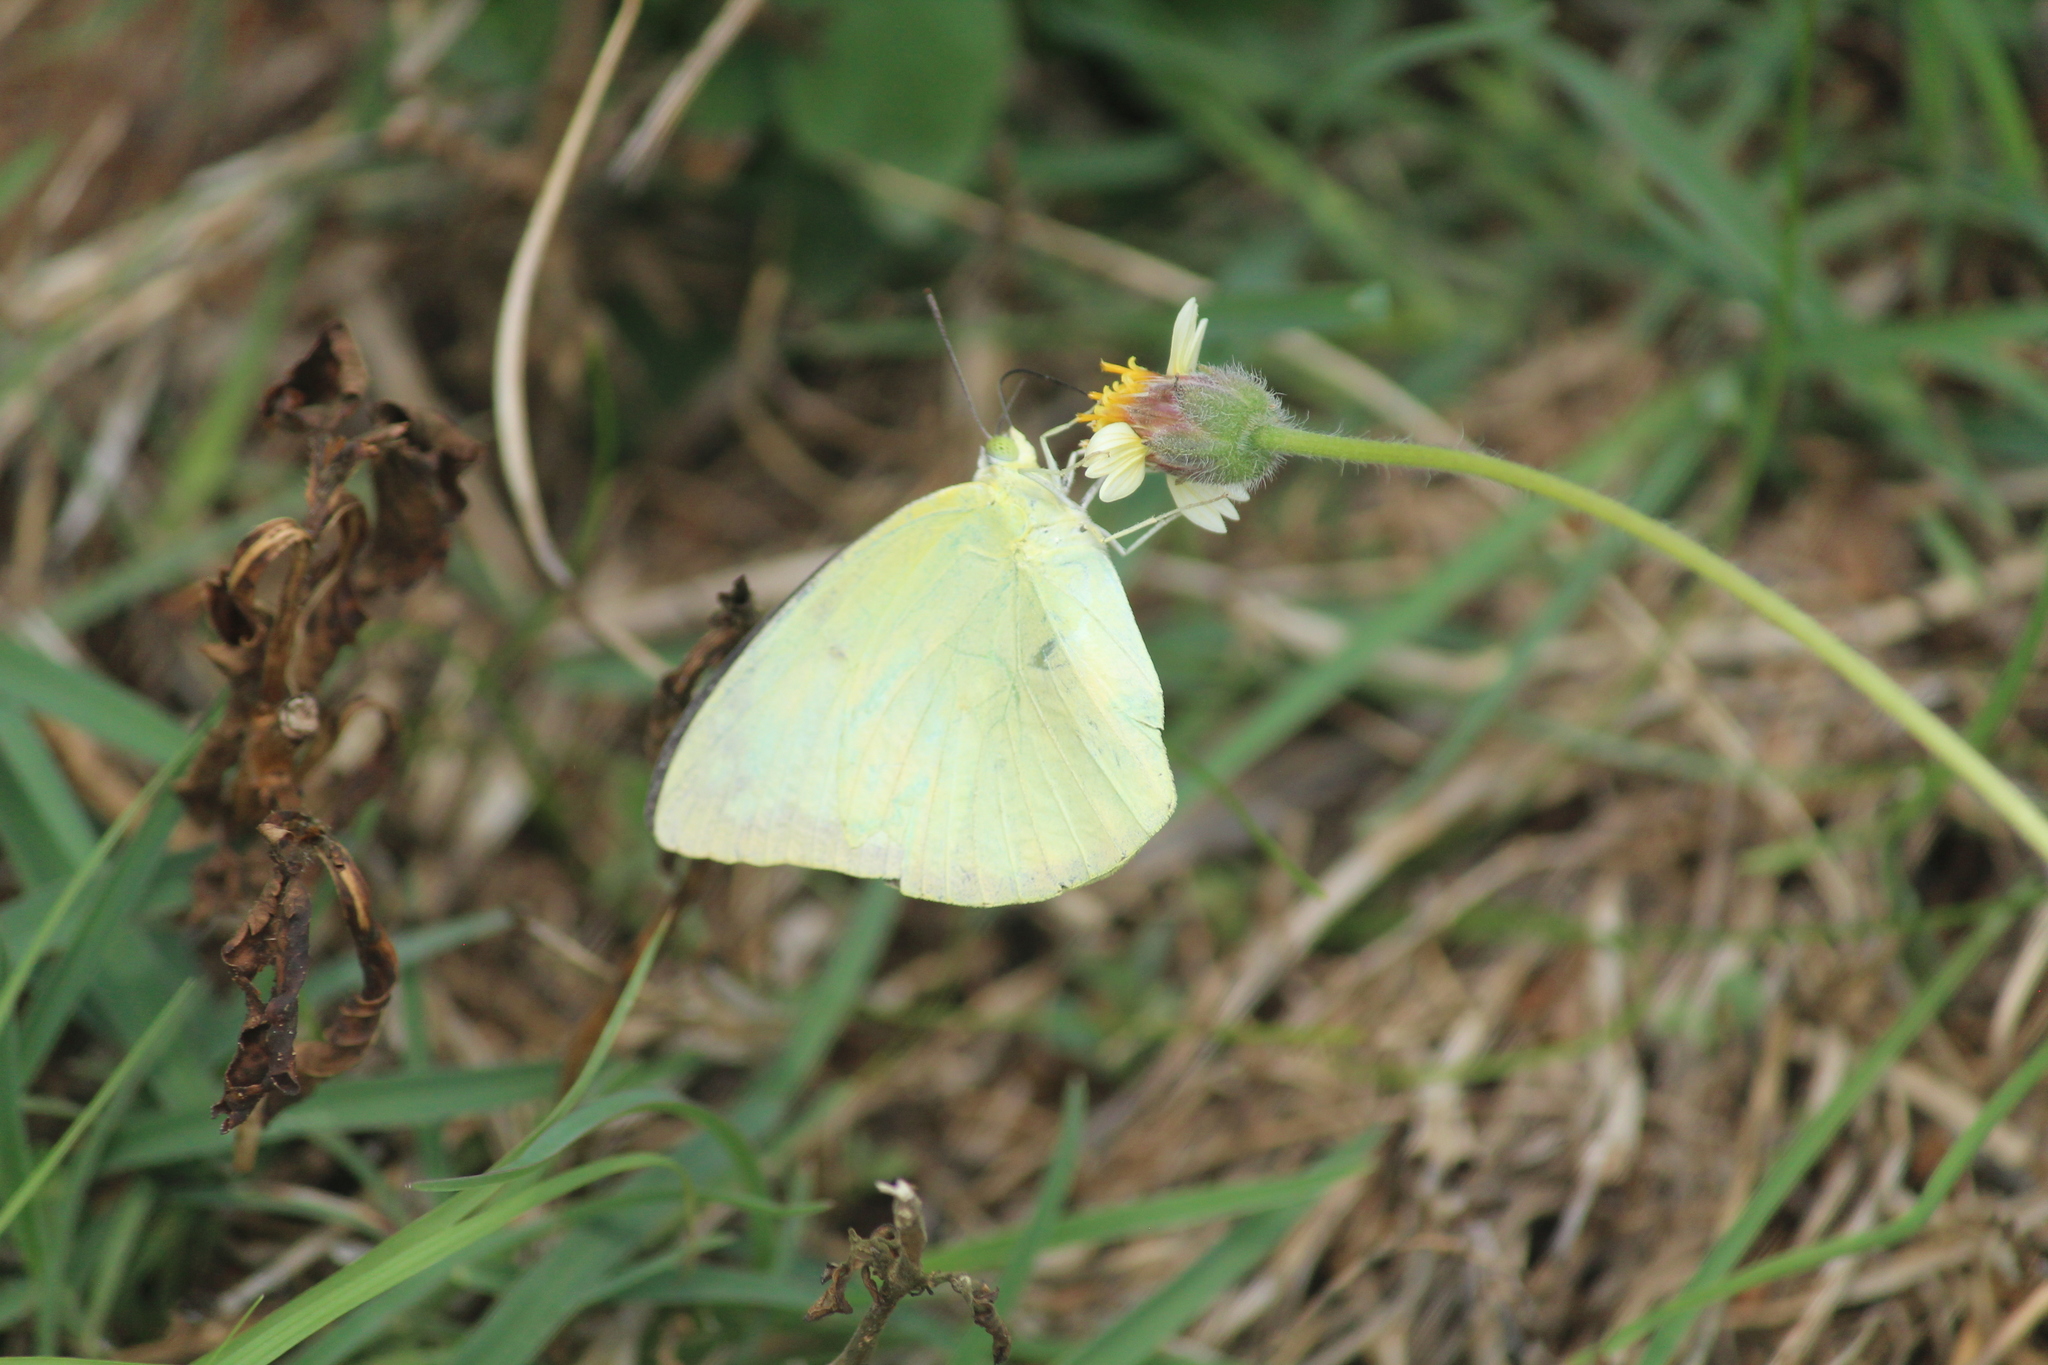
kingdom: Animalia
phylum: Arthropoda
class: Insecta
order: Lepidoptera
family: Pieridae
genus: Catopsilia
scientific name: Catopsilia pomona
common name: Common emigrant
